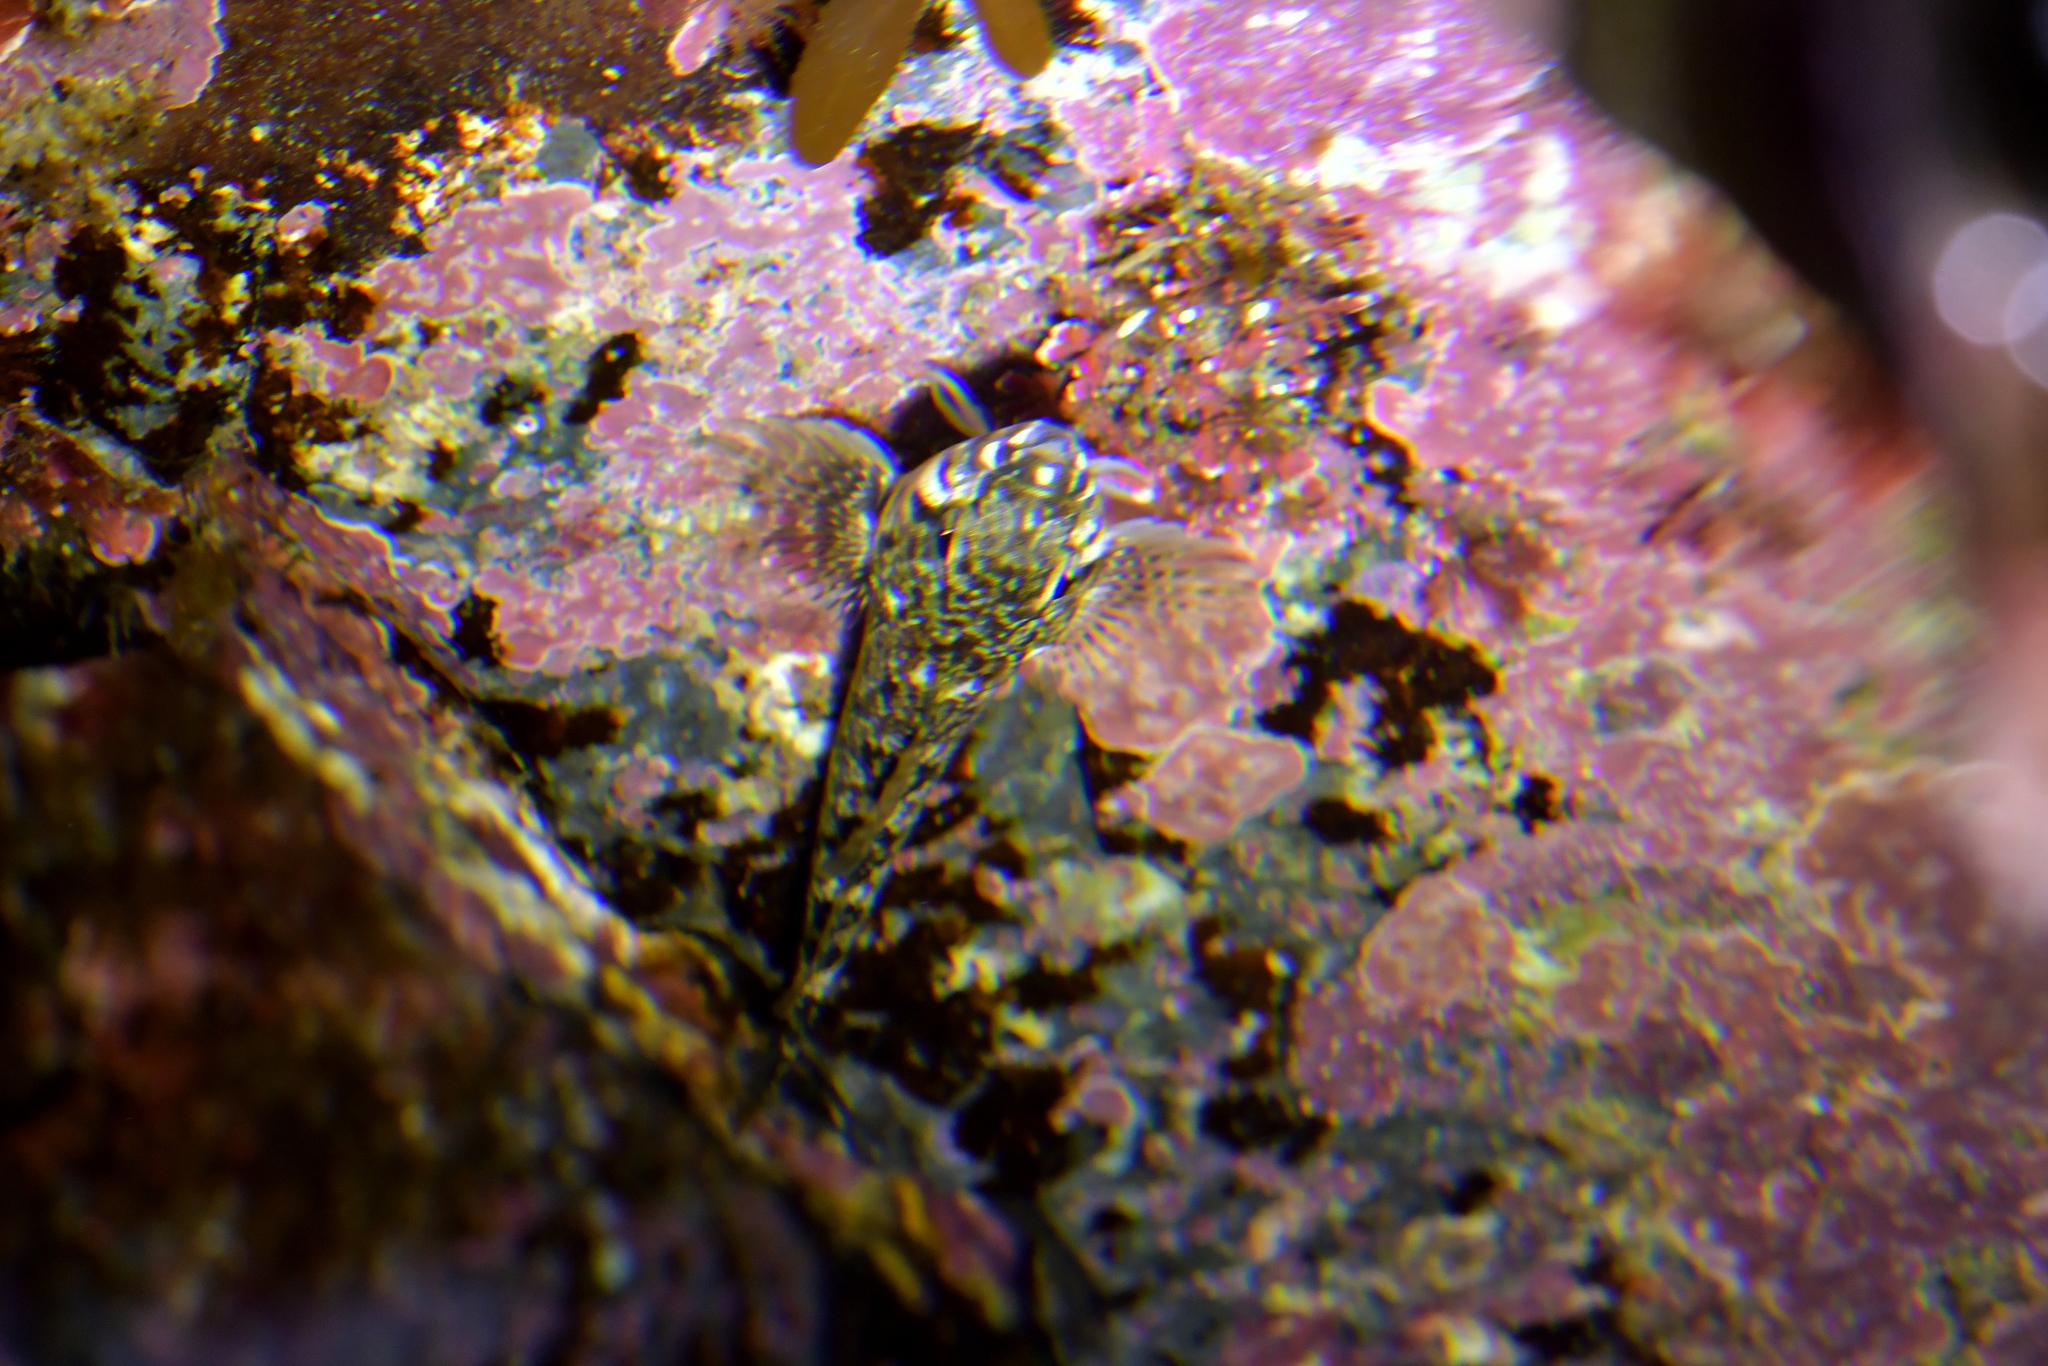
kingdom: Animalia
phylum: Chordata
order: Perciformes
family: Tripterygiidae
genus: Bellapiscis
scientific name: Bellapiscis medius
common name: Twister
